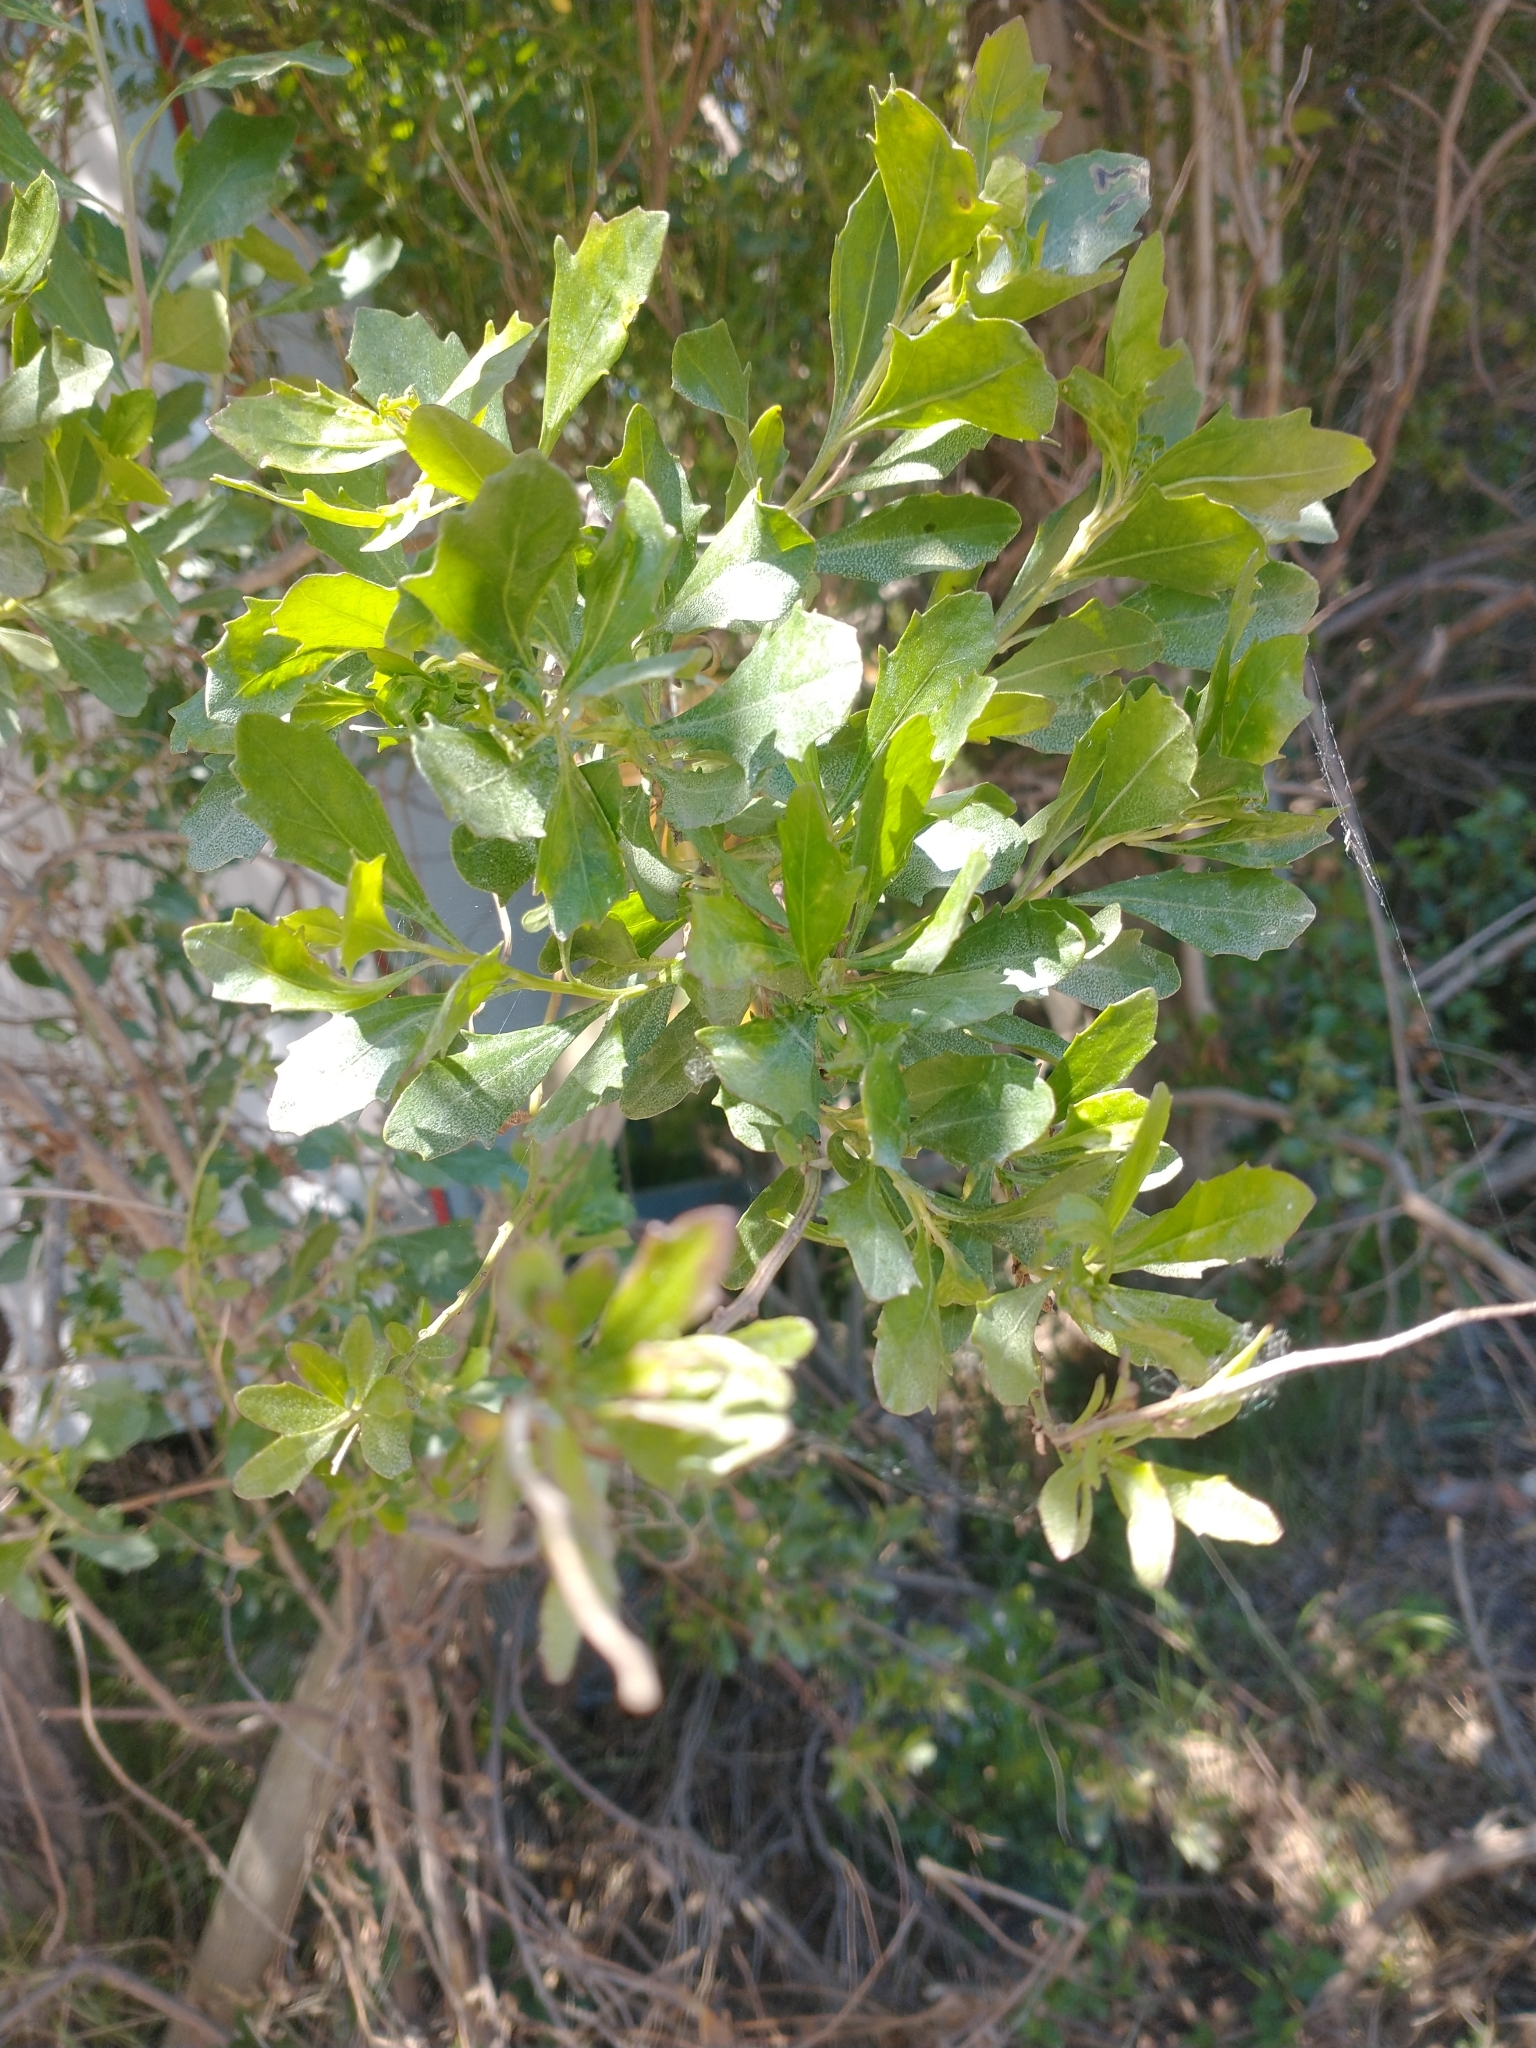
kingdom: Plantae
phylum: Tracheophyta
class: Magnoliopsida
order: Asterales
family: Asteraceae
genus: Baccharis
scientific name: Baccharis halimifolia
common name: Eastern baccharis
